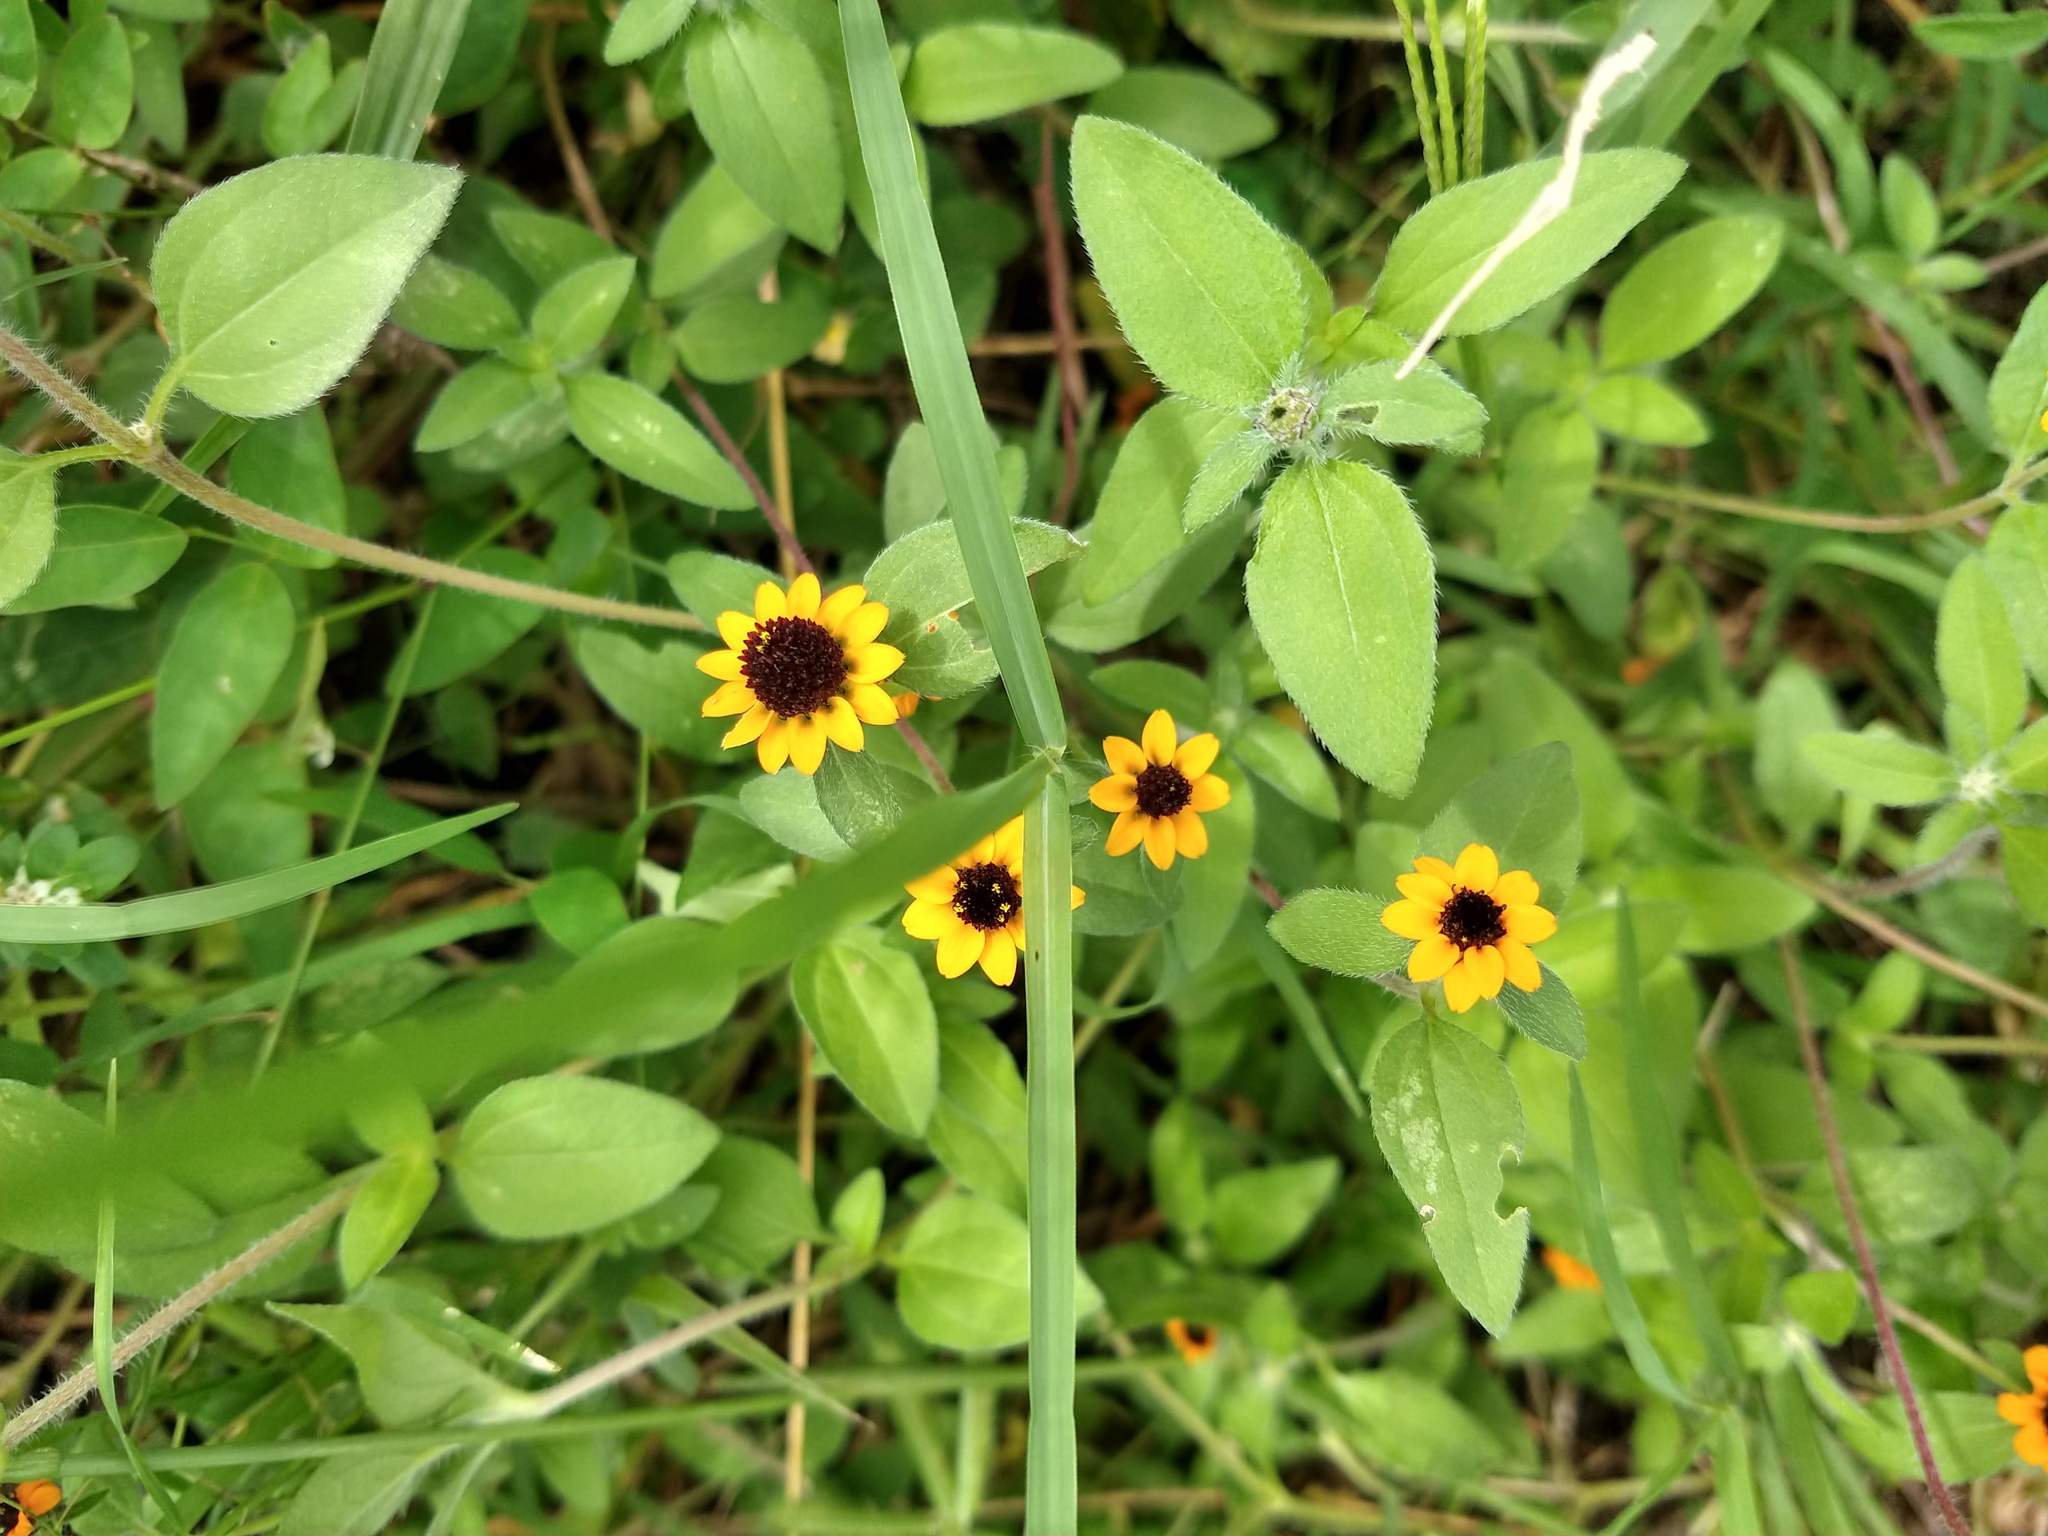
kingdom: Plantae
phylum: Tracheophyta
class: Magnoliopsida
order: Asterales
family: Asteraceae
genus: Sanvitalia
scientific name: Sanvitalia procumbens
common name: Mexican creeping zinnia
